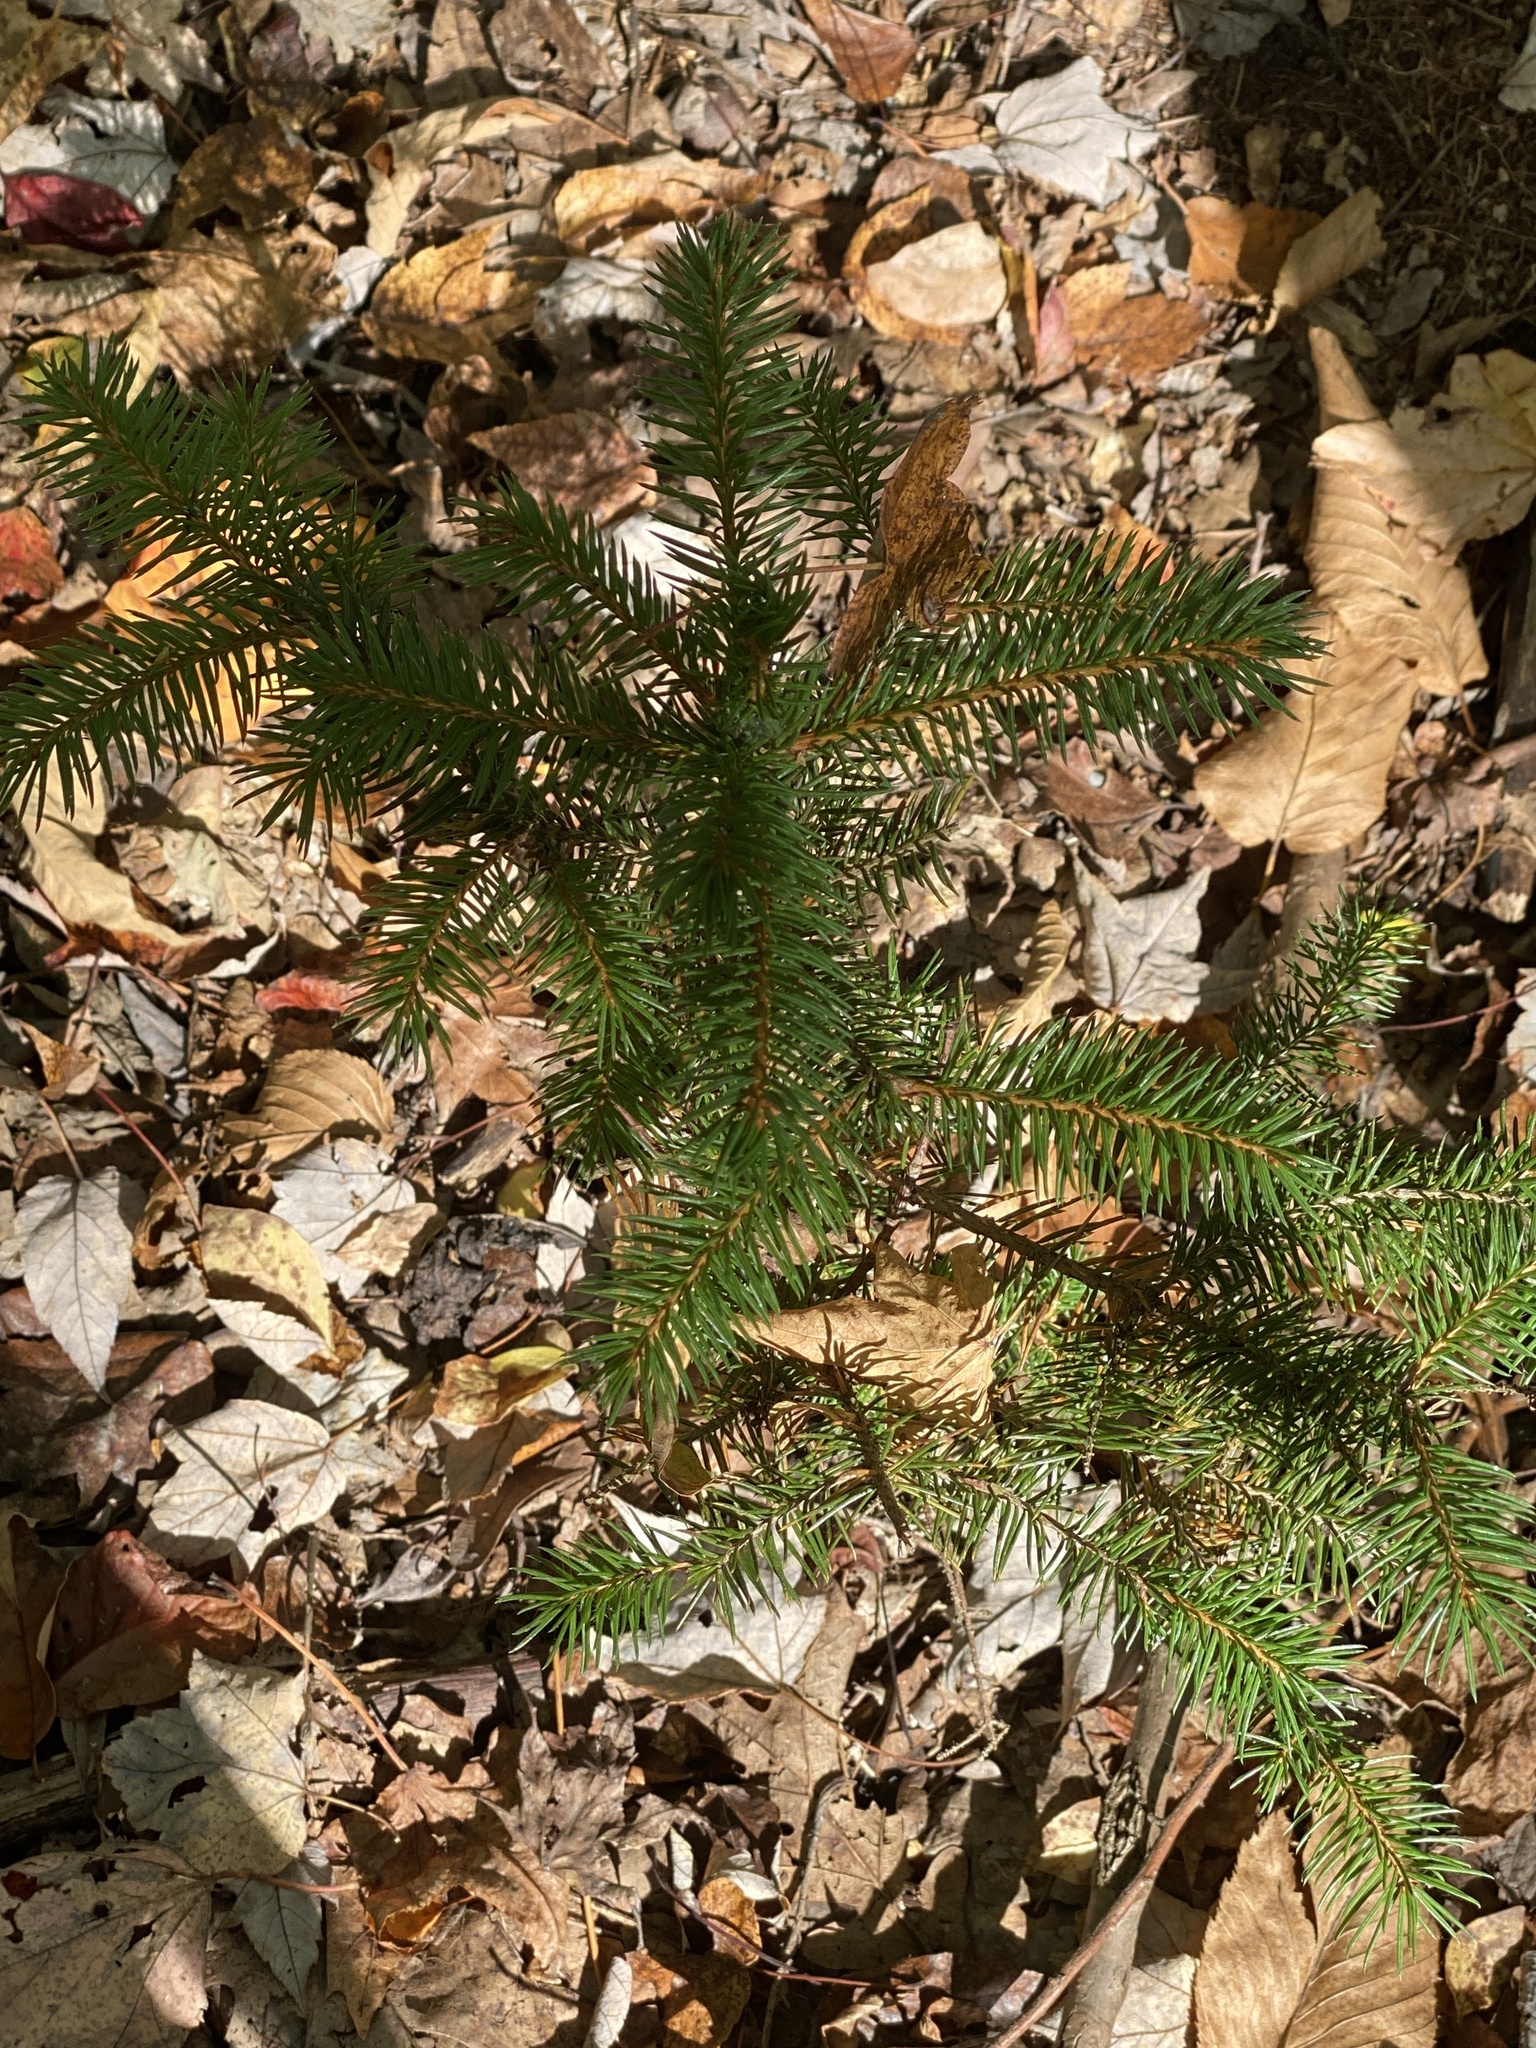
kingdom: Plantae
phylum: Tracheophyta
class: Pinopsida
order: Pinales
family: Pinaceae
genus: Picea
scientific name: Picea abies
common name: Norway spruce
